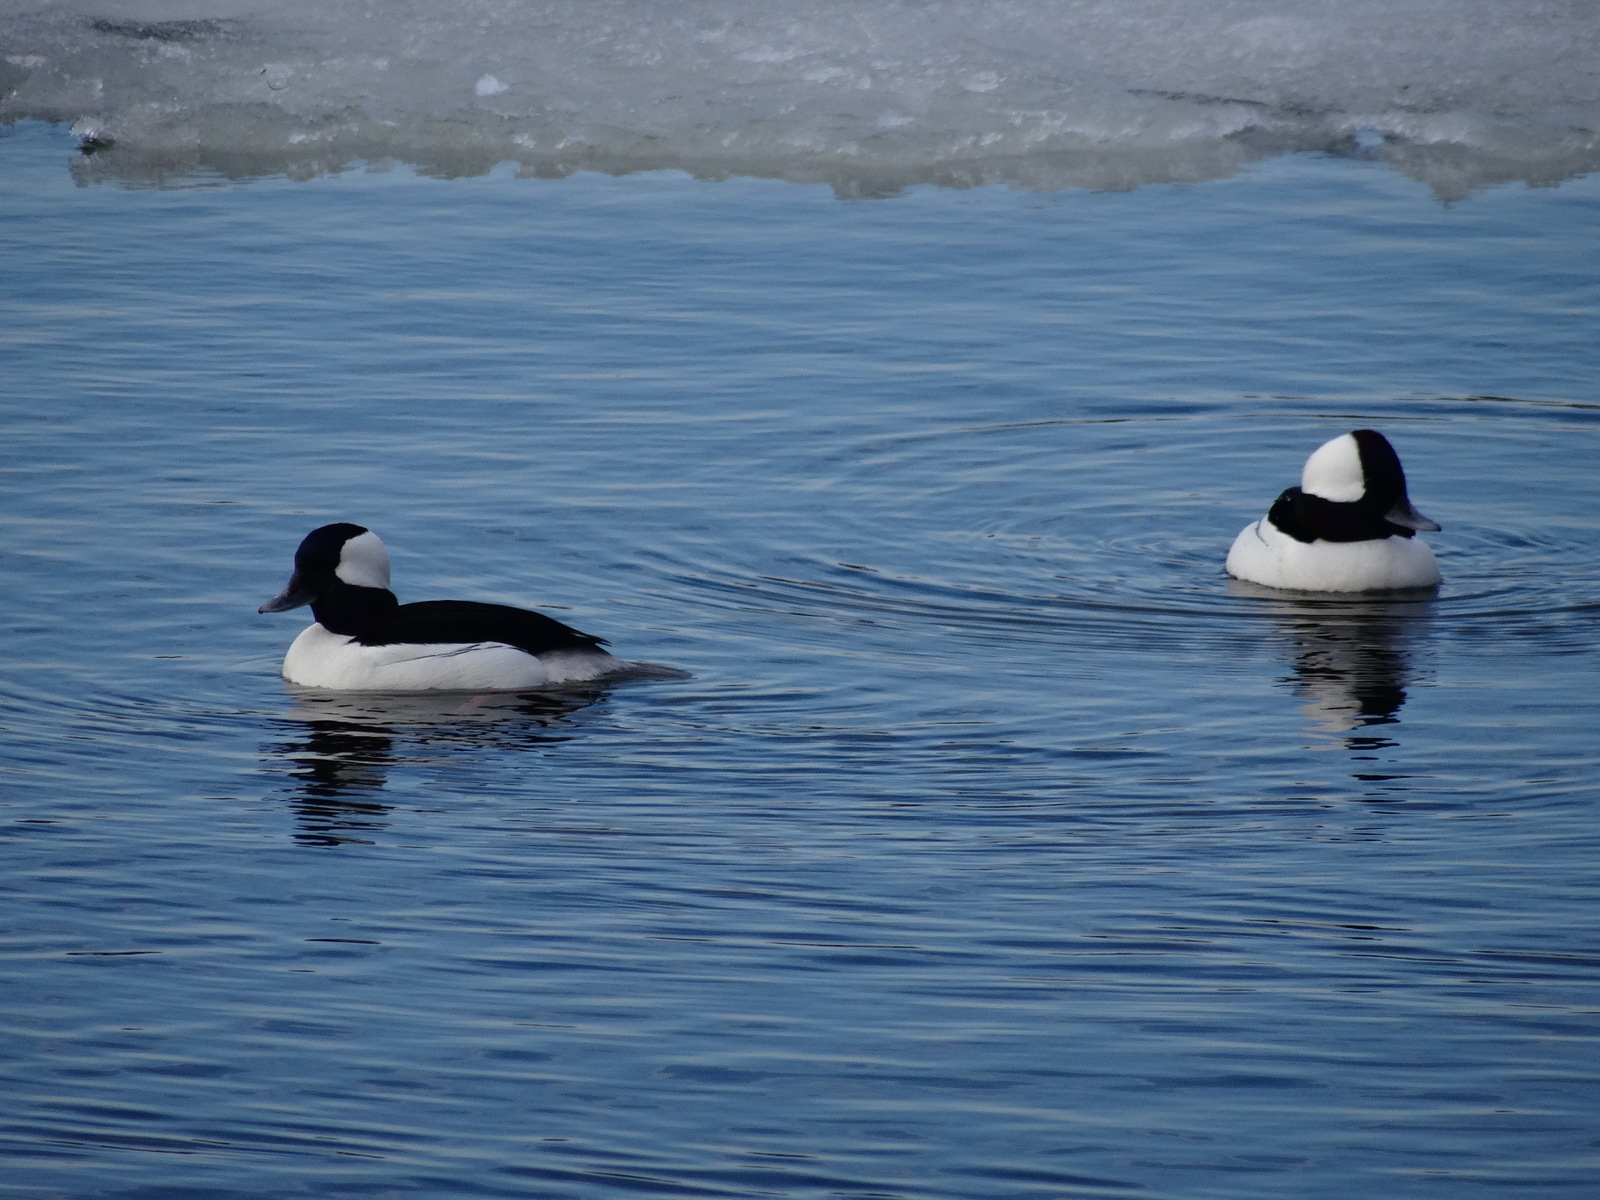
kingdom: Animalia
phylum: Chordata
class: Aves
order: Anseriformes
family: Anatidae
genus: Bucephala
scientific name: Bucephala albeola
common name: Bufflehead
